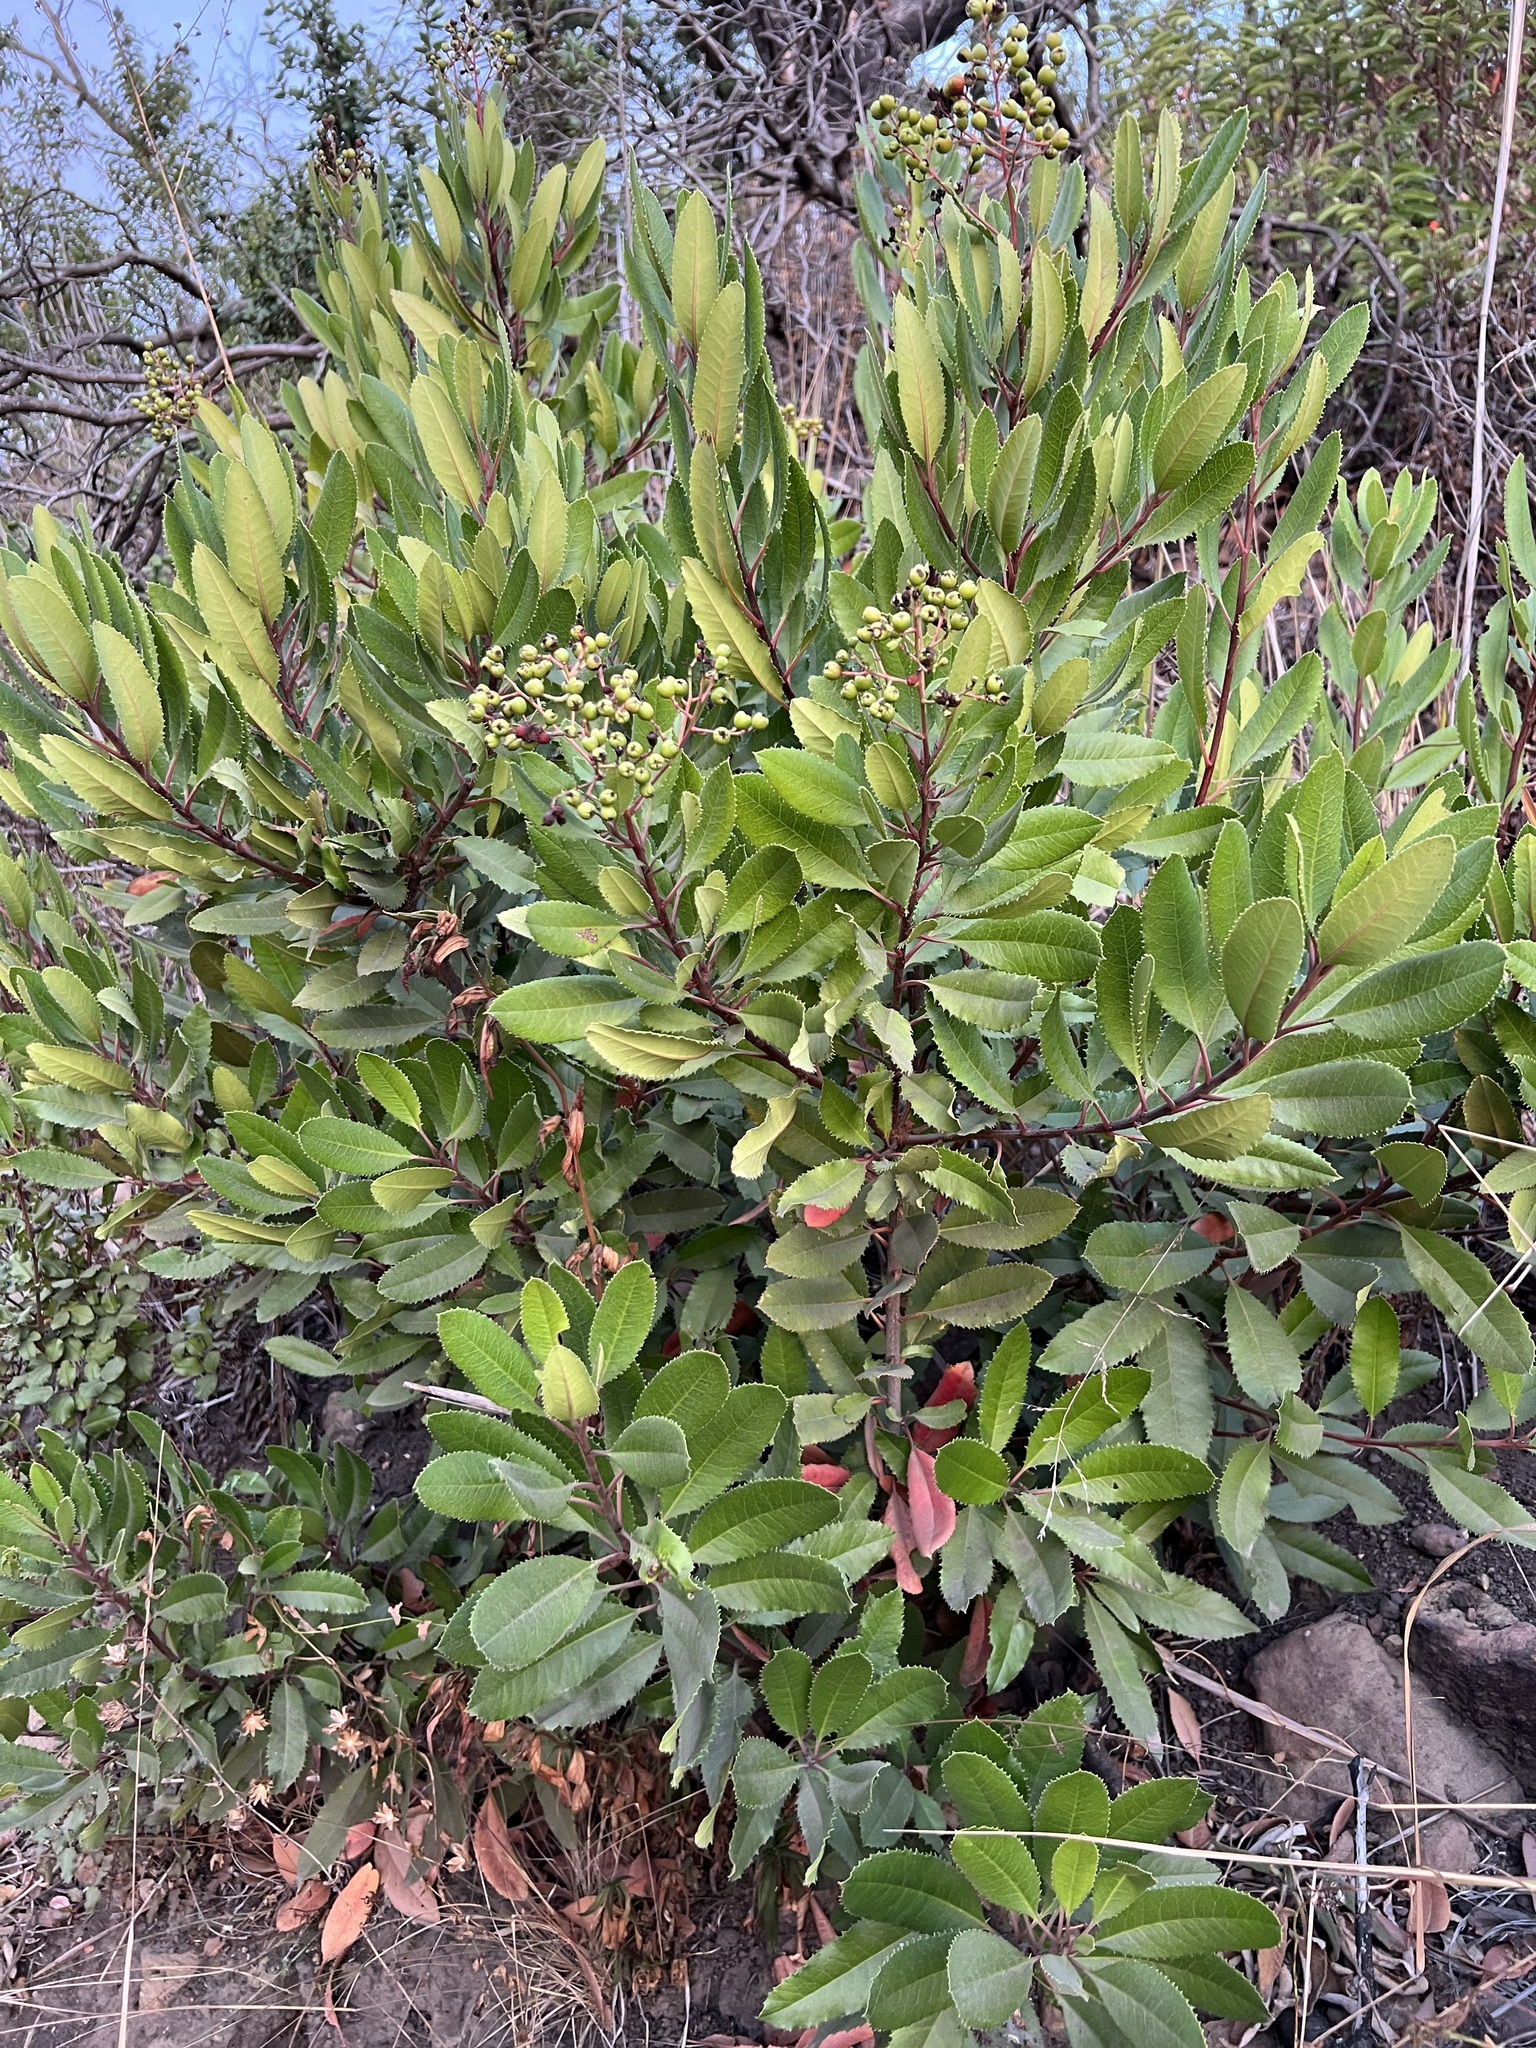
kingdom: Plantae
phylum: Tracheophyta
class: Magnoliopsida
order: Rosales
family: Rosaceae
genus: Heteromeles
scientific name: Heteromeles arbutifolia
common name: California-holly
